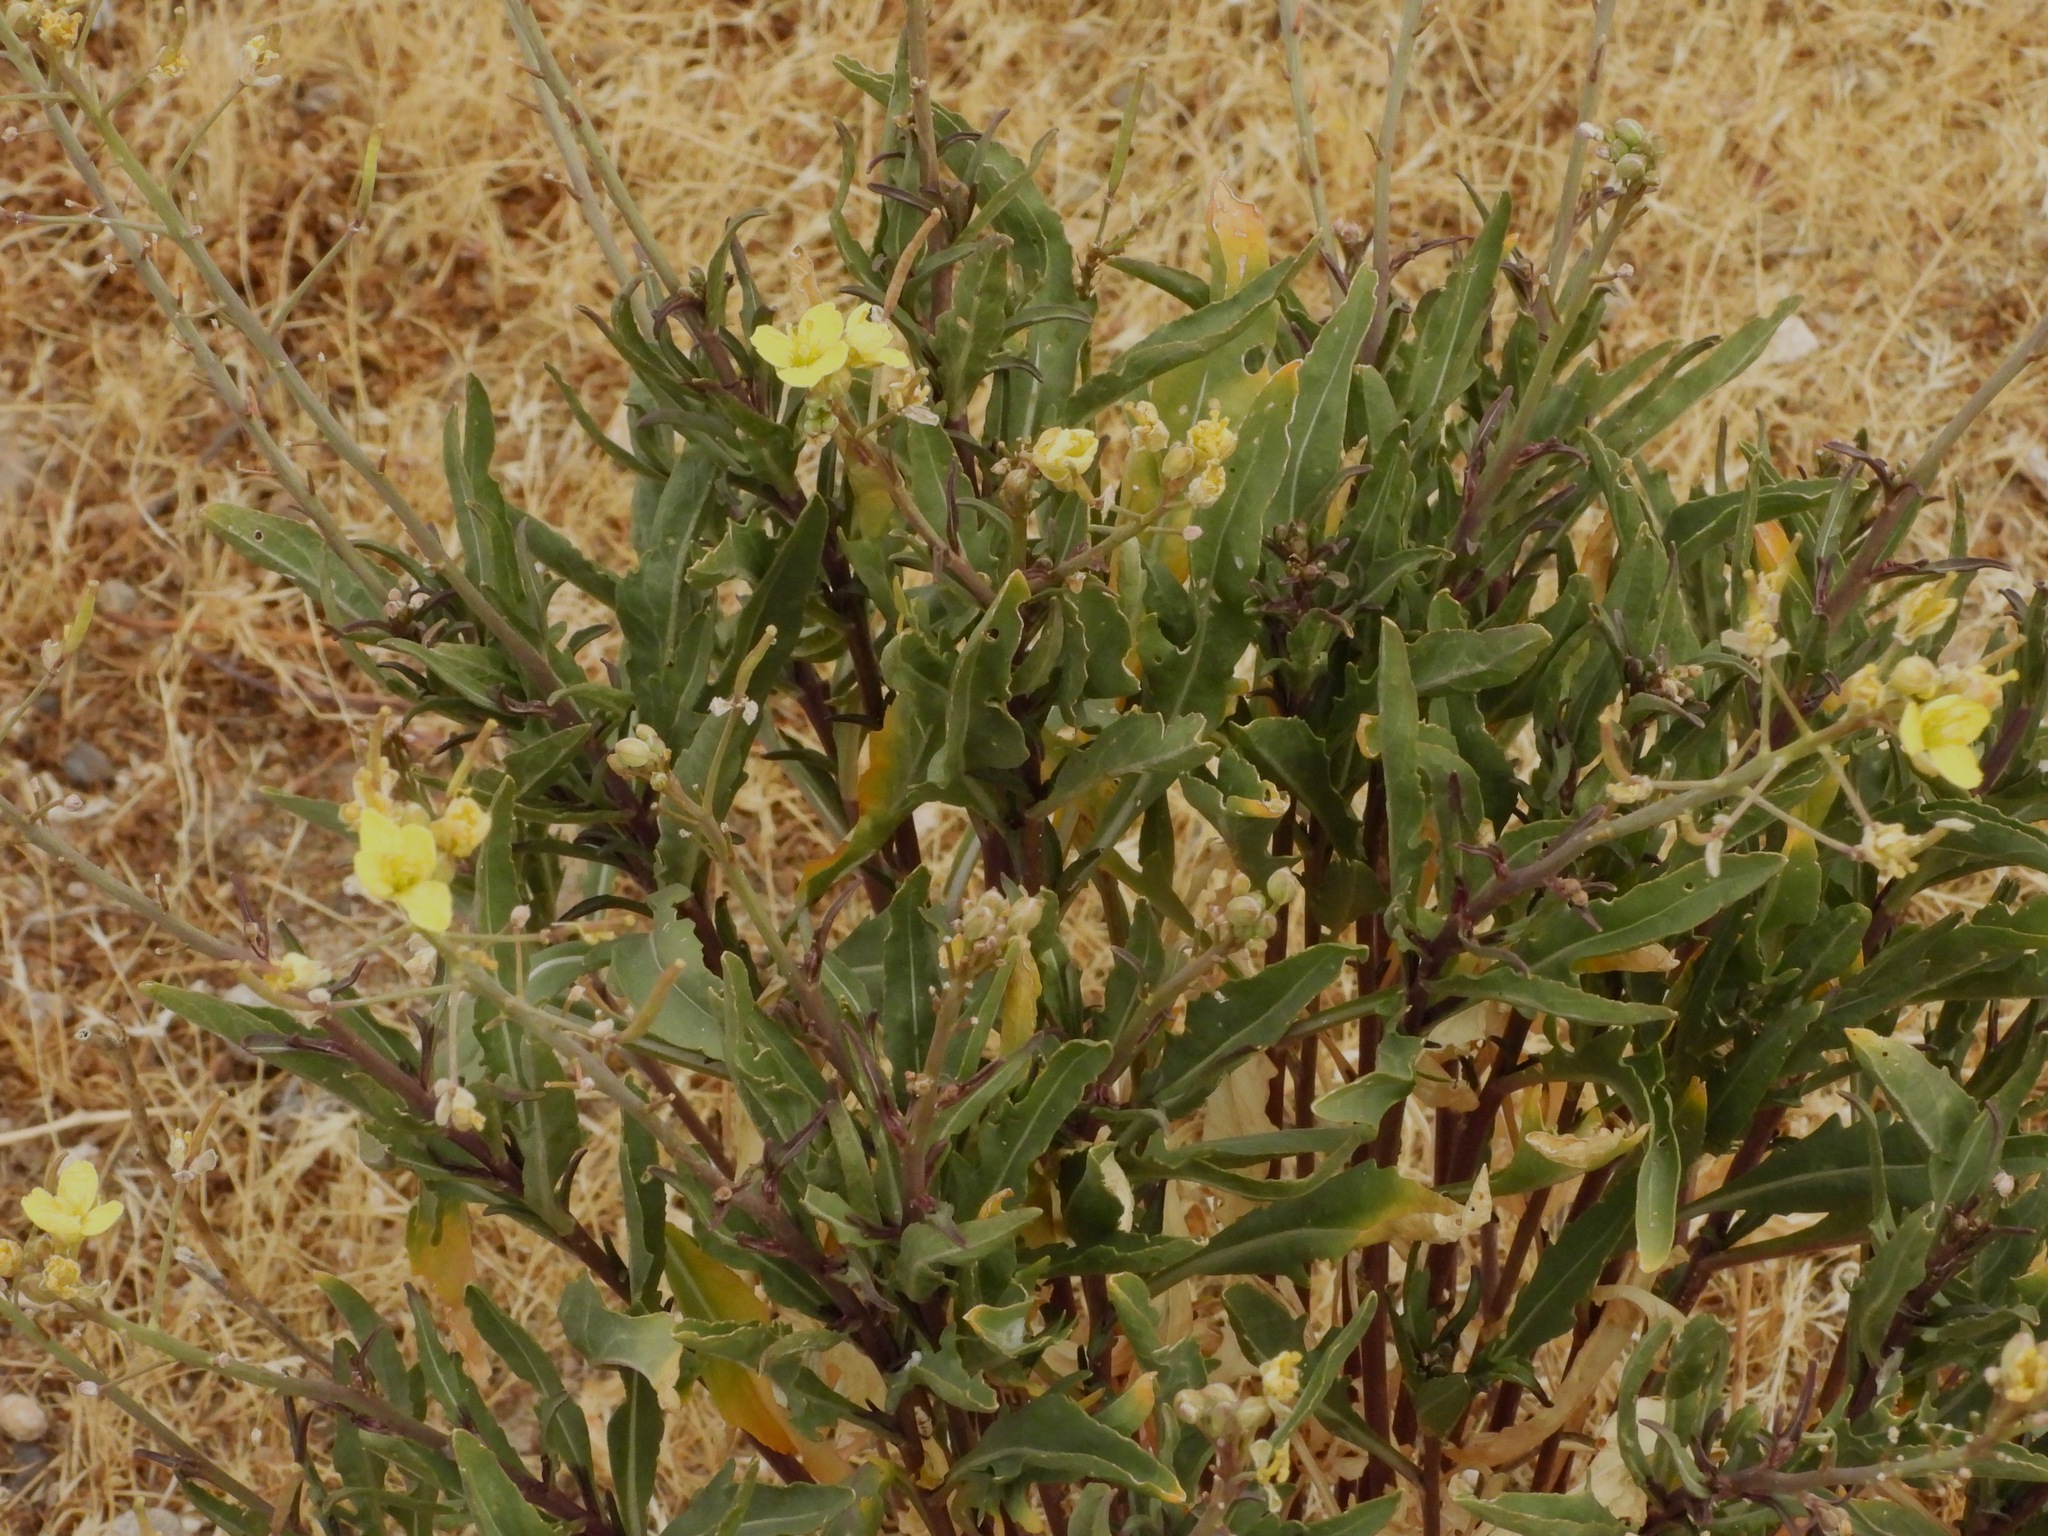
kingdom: Plantae
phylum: Tracheophyta
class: Magnoliopsida
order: Brassicales
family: Brassicaceae
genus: Diplotaxis
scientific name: Diplotaxis tenuifolia
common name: Perennial wall-rocket
